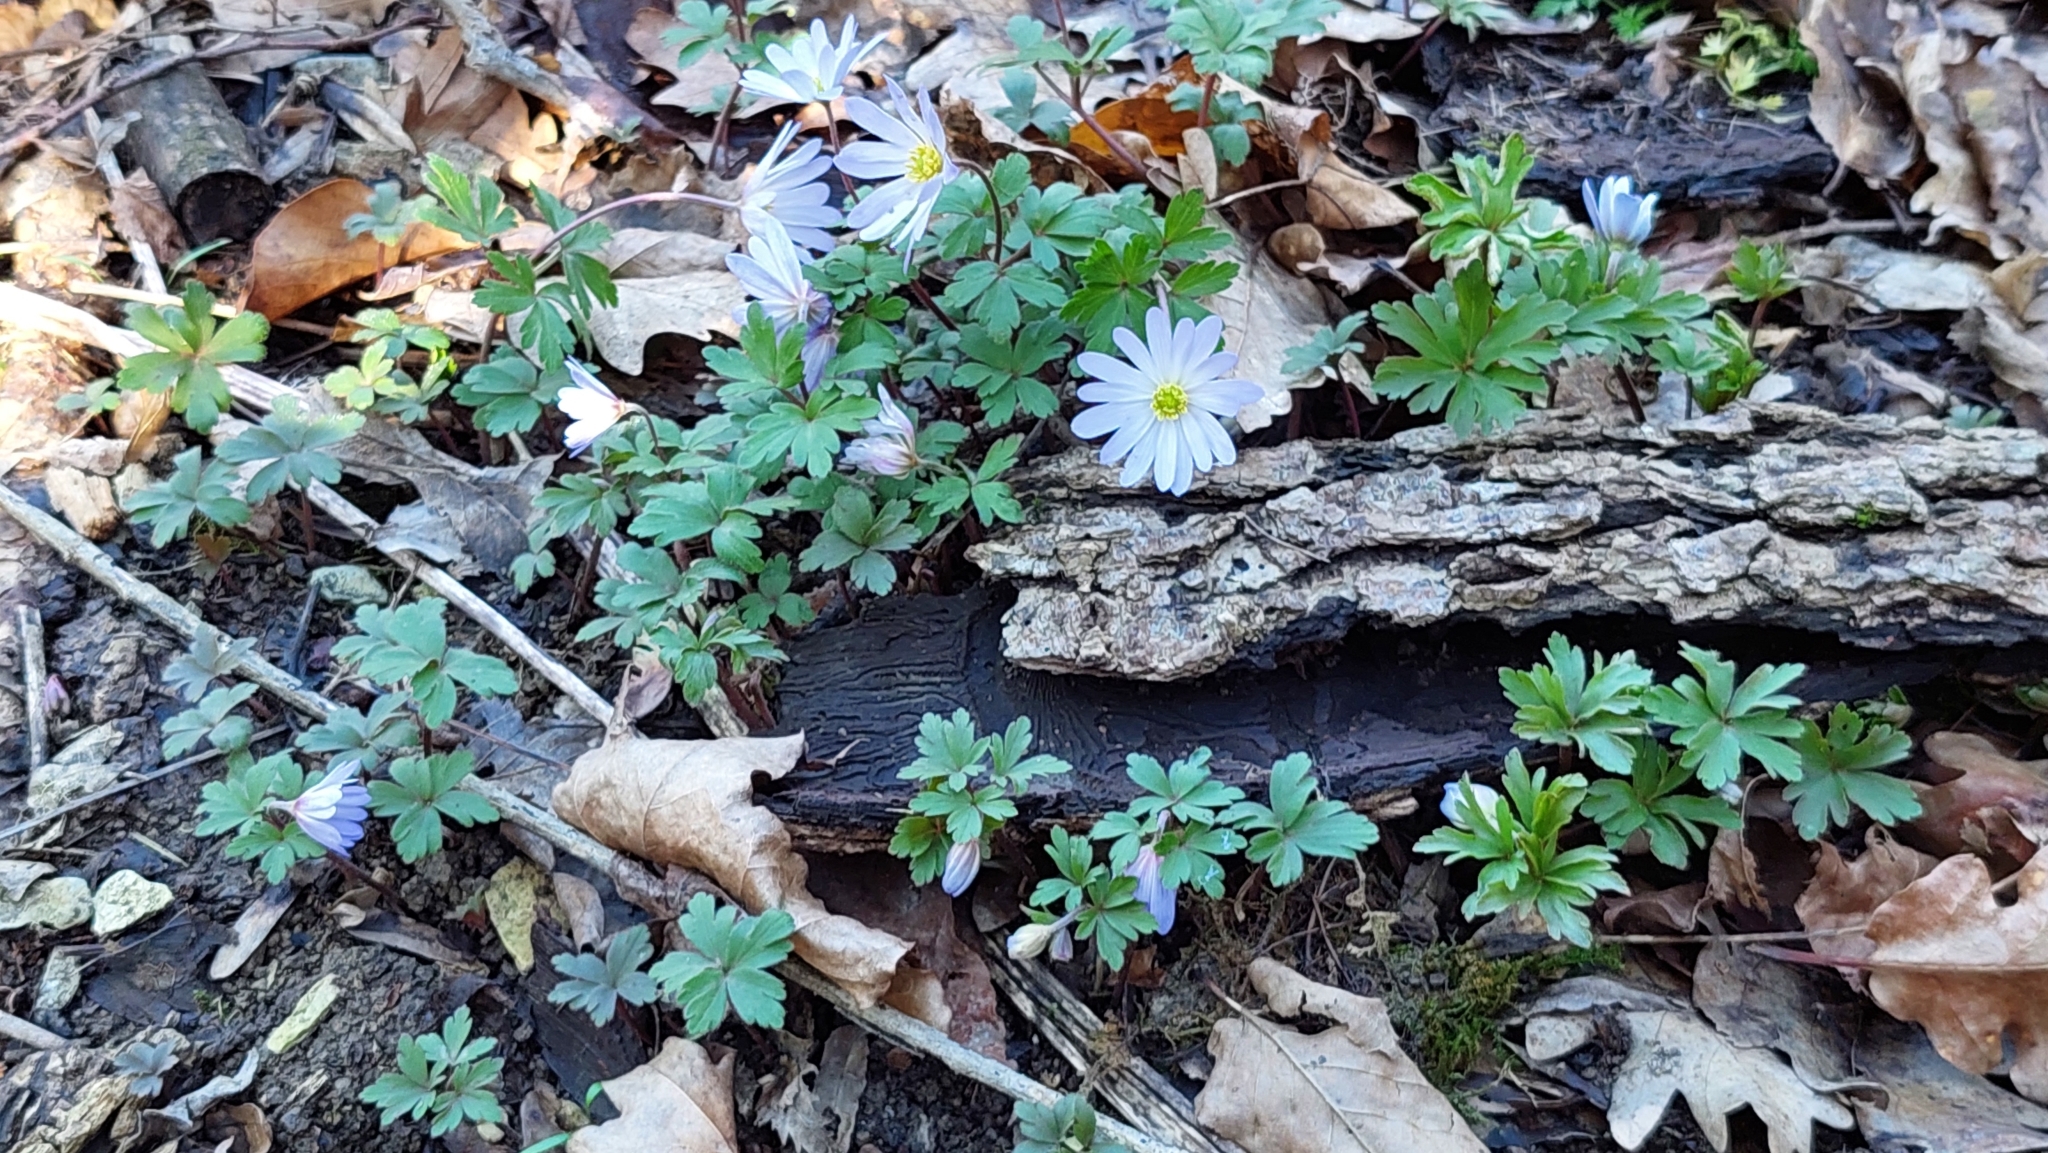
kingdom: Plantae
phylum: Tracheophyta
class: Magnoliopsida
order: Ranunculales
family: Ranunculaceae
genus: Anemone
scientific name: Anemone blanda
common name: Balkan anemone
